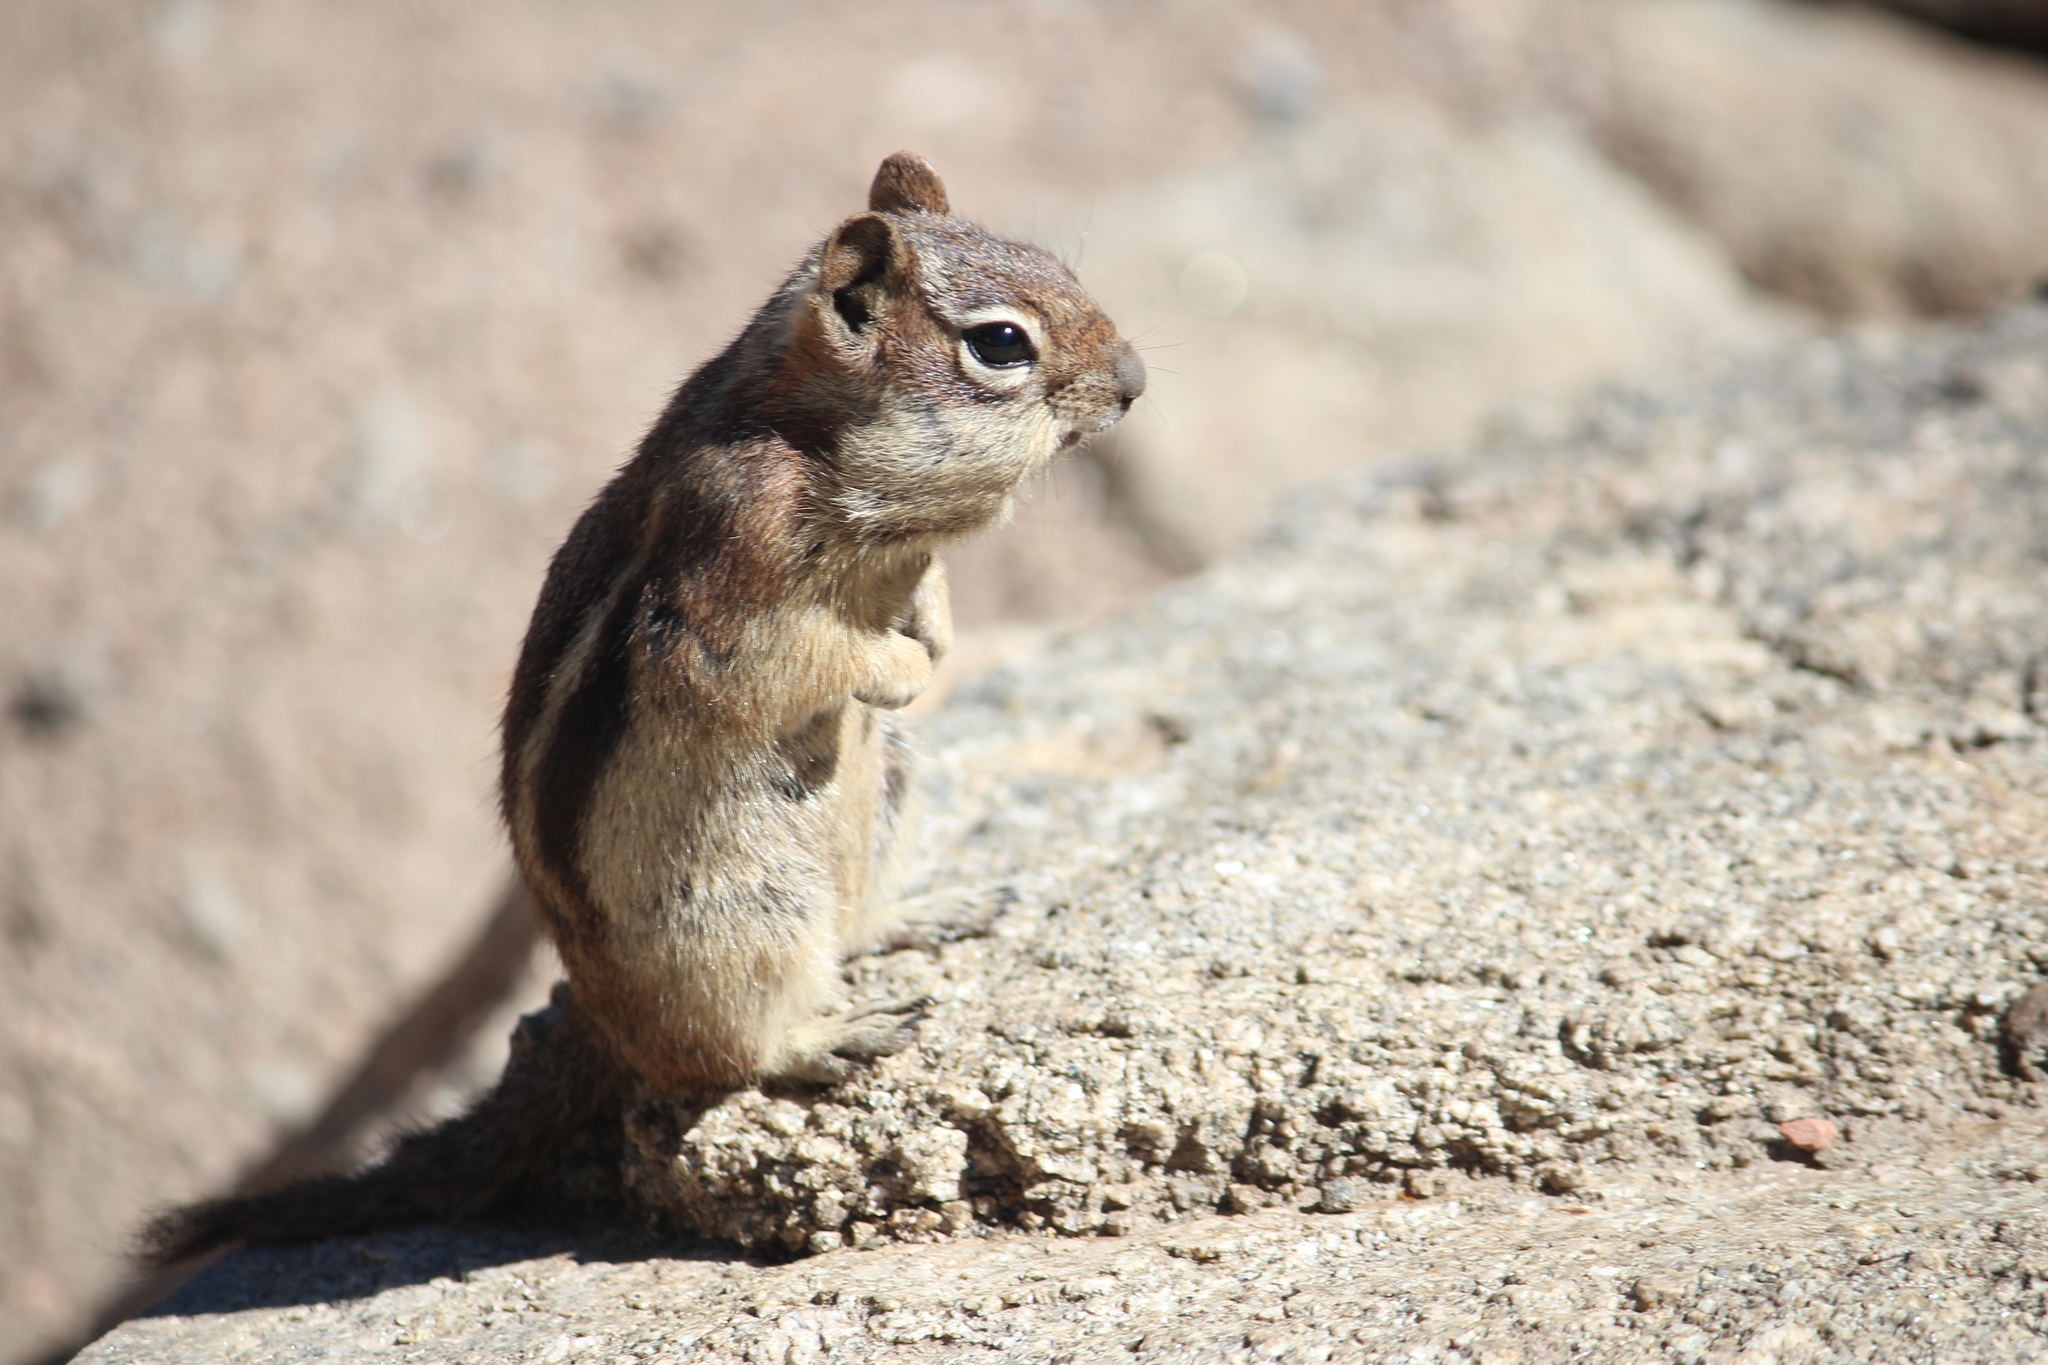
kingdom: Animalia
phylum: Chordata
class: Mammalia
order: Rodentia
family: Sciuridae
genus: Callospermophilus
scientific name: Callospermophilus lateralis
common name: Golden-mantled ground squirrel
